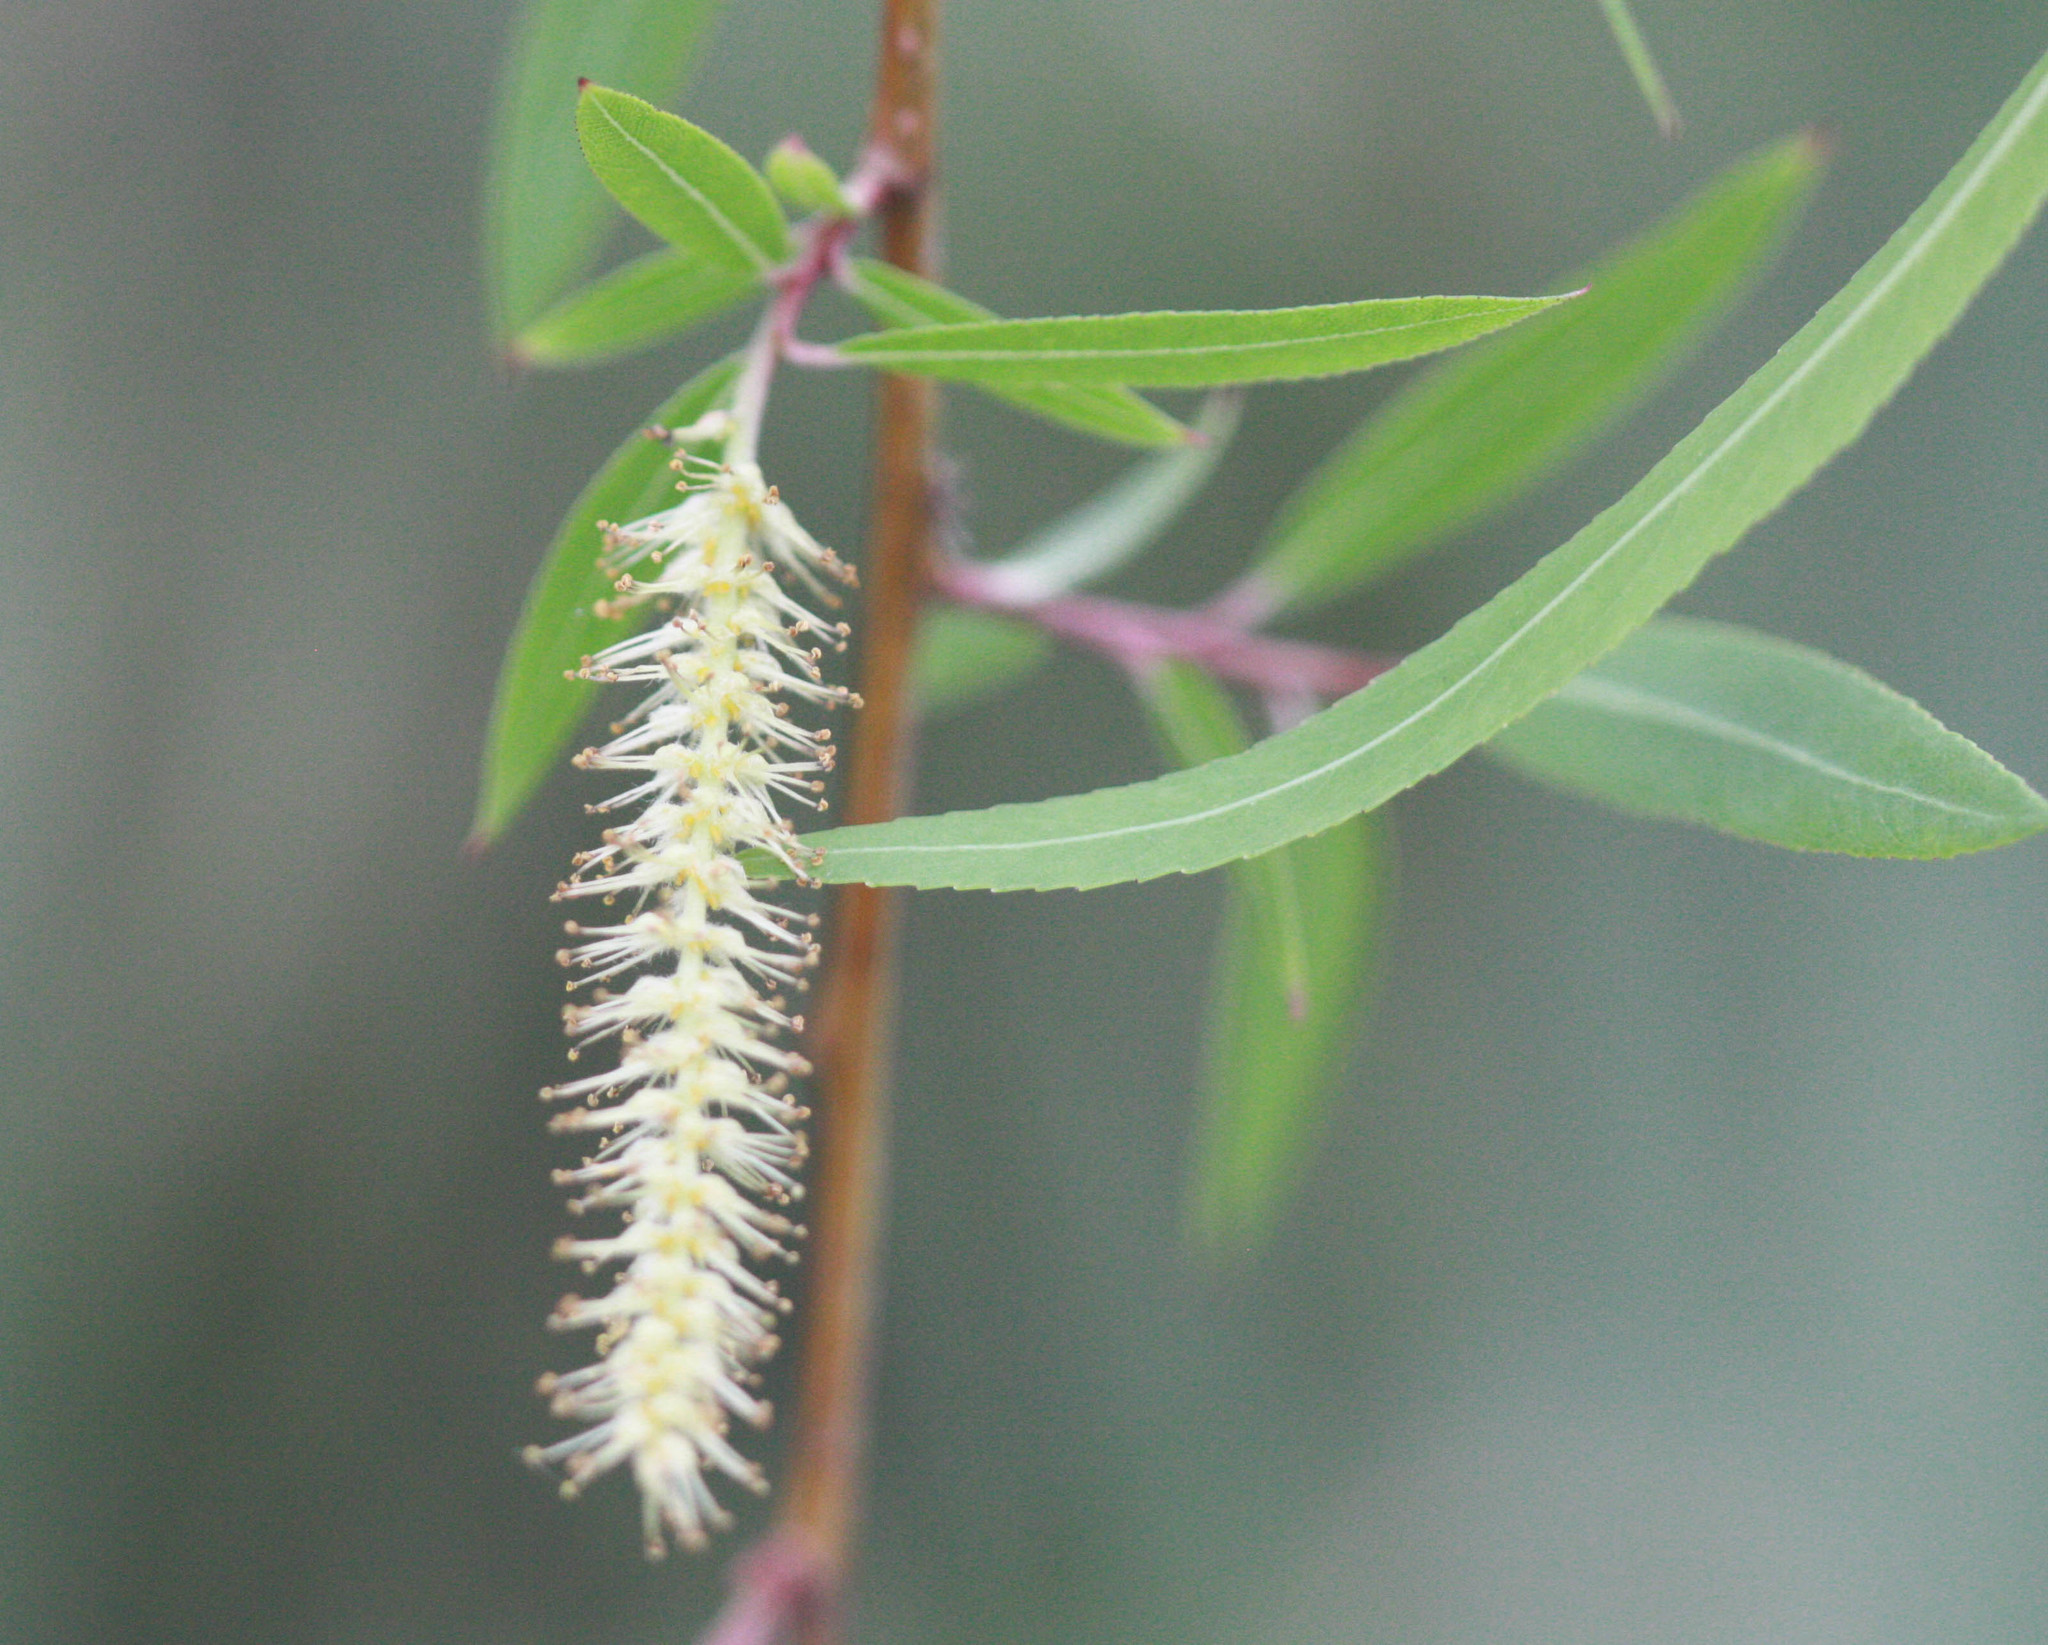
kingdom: Plantae
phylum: Tracheophyta
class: Magnoliopsida
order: Malpighiales
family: Salicaceae
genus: Salix
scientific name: Salix nigra
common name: Black willow
